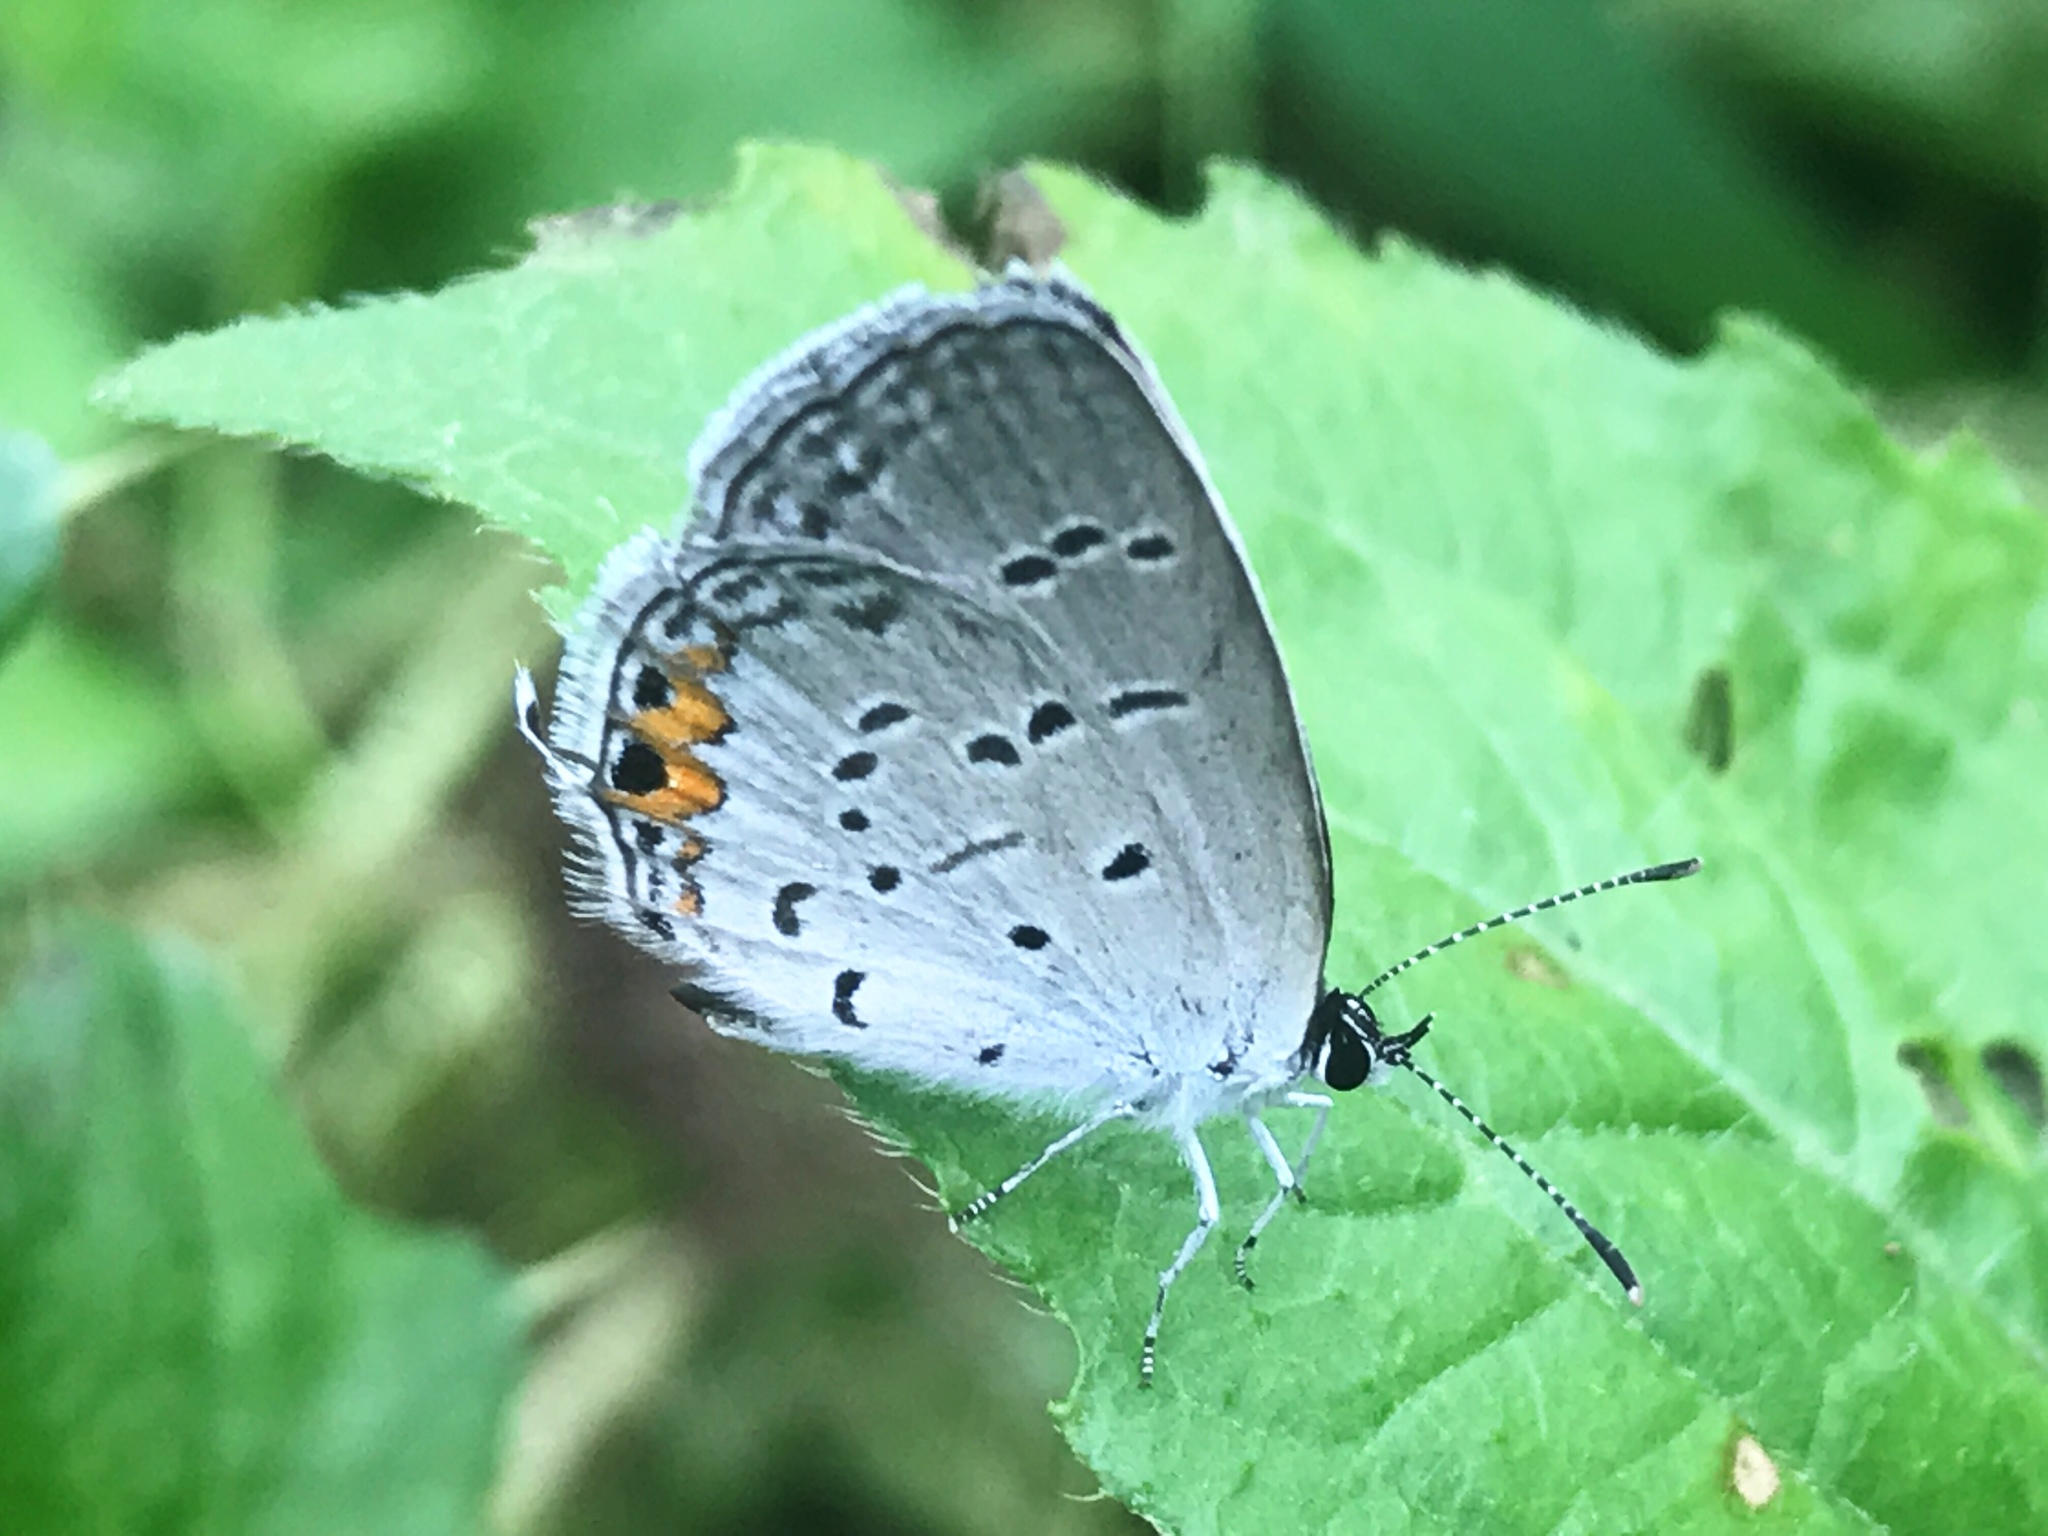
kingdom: Animalia
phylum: Arthropoda
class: Insecta
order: Lepidoptera
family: Lycaenidae
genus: Elkalyce
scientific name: Elkalyce comyntas
